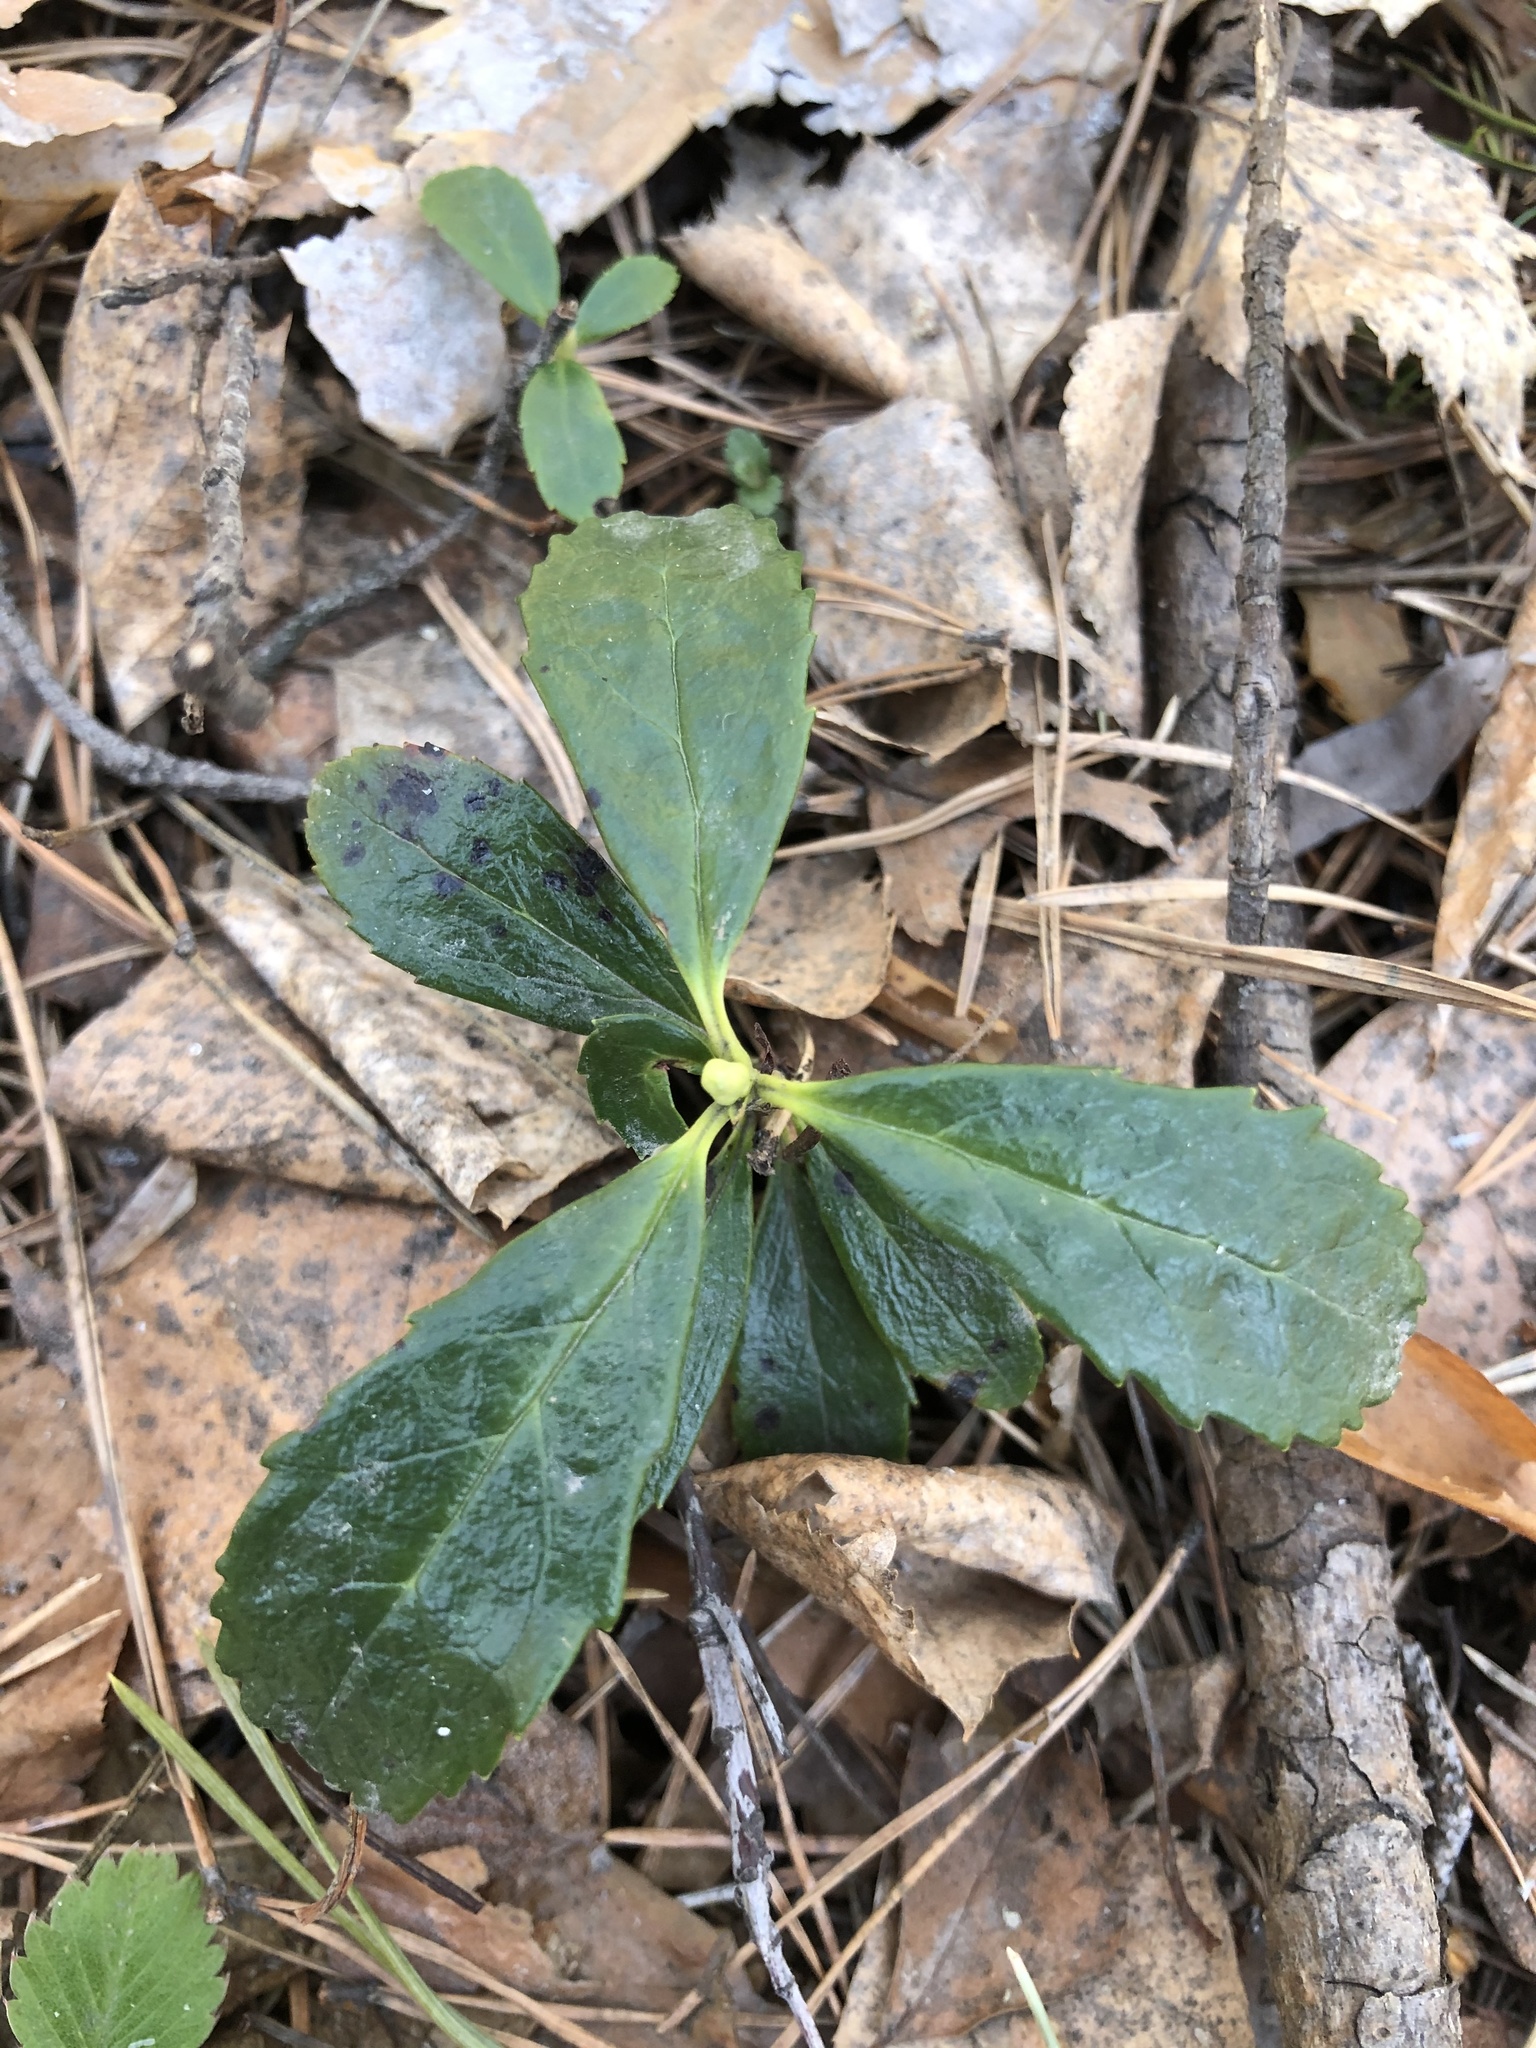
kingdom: Plantae
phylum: Tracheophyta
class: Magnoliopsida
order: Ericales
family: Ericaceae
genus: Chimaphila
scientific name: Chimaphila umbellata
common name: Pipsissewa
